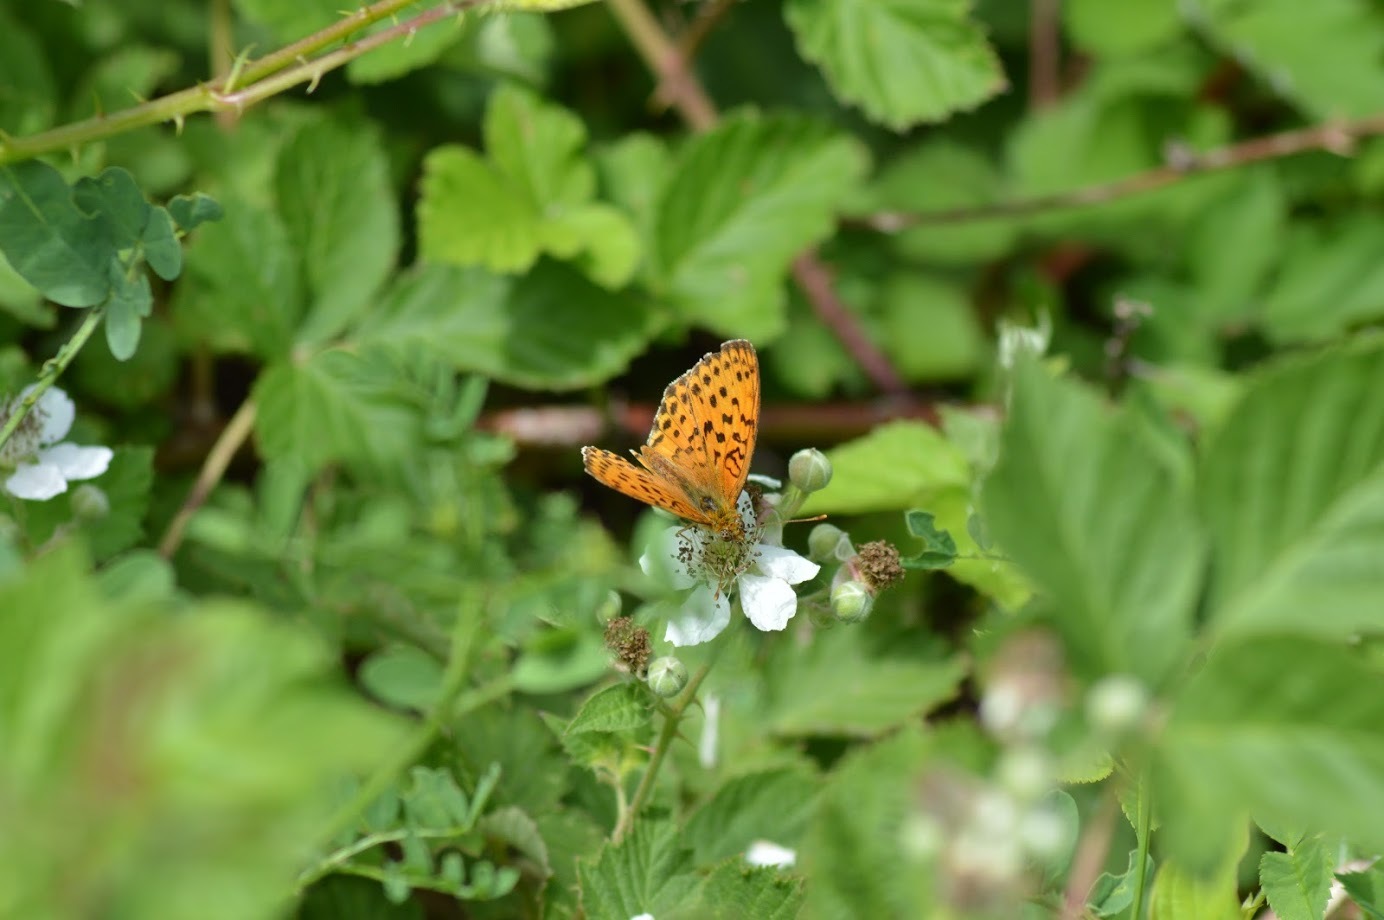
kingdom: Animalia
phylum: Arthropoda
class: Insecta
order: Lepidoptera
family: Nymphalidae
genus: Brenthis
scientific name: Brenthis daphne
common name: Marbled fritillary
